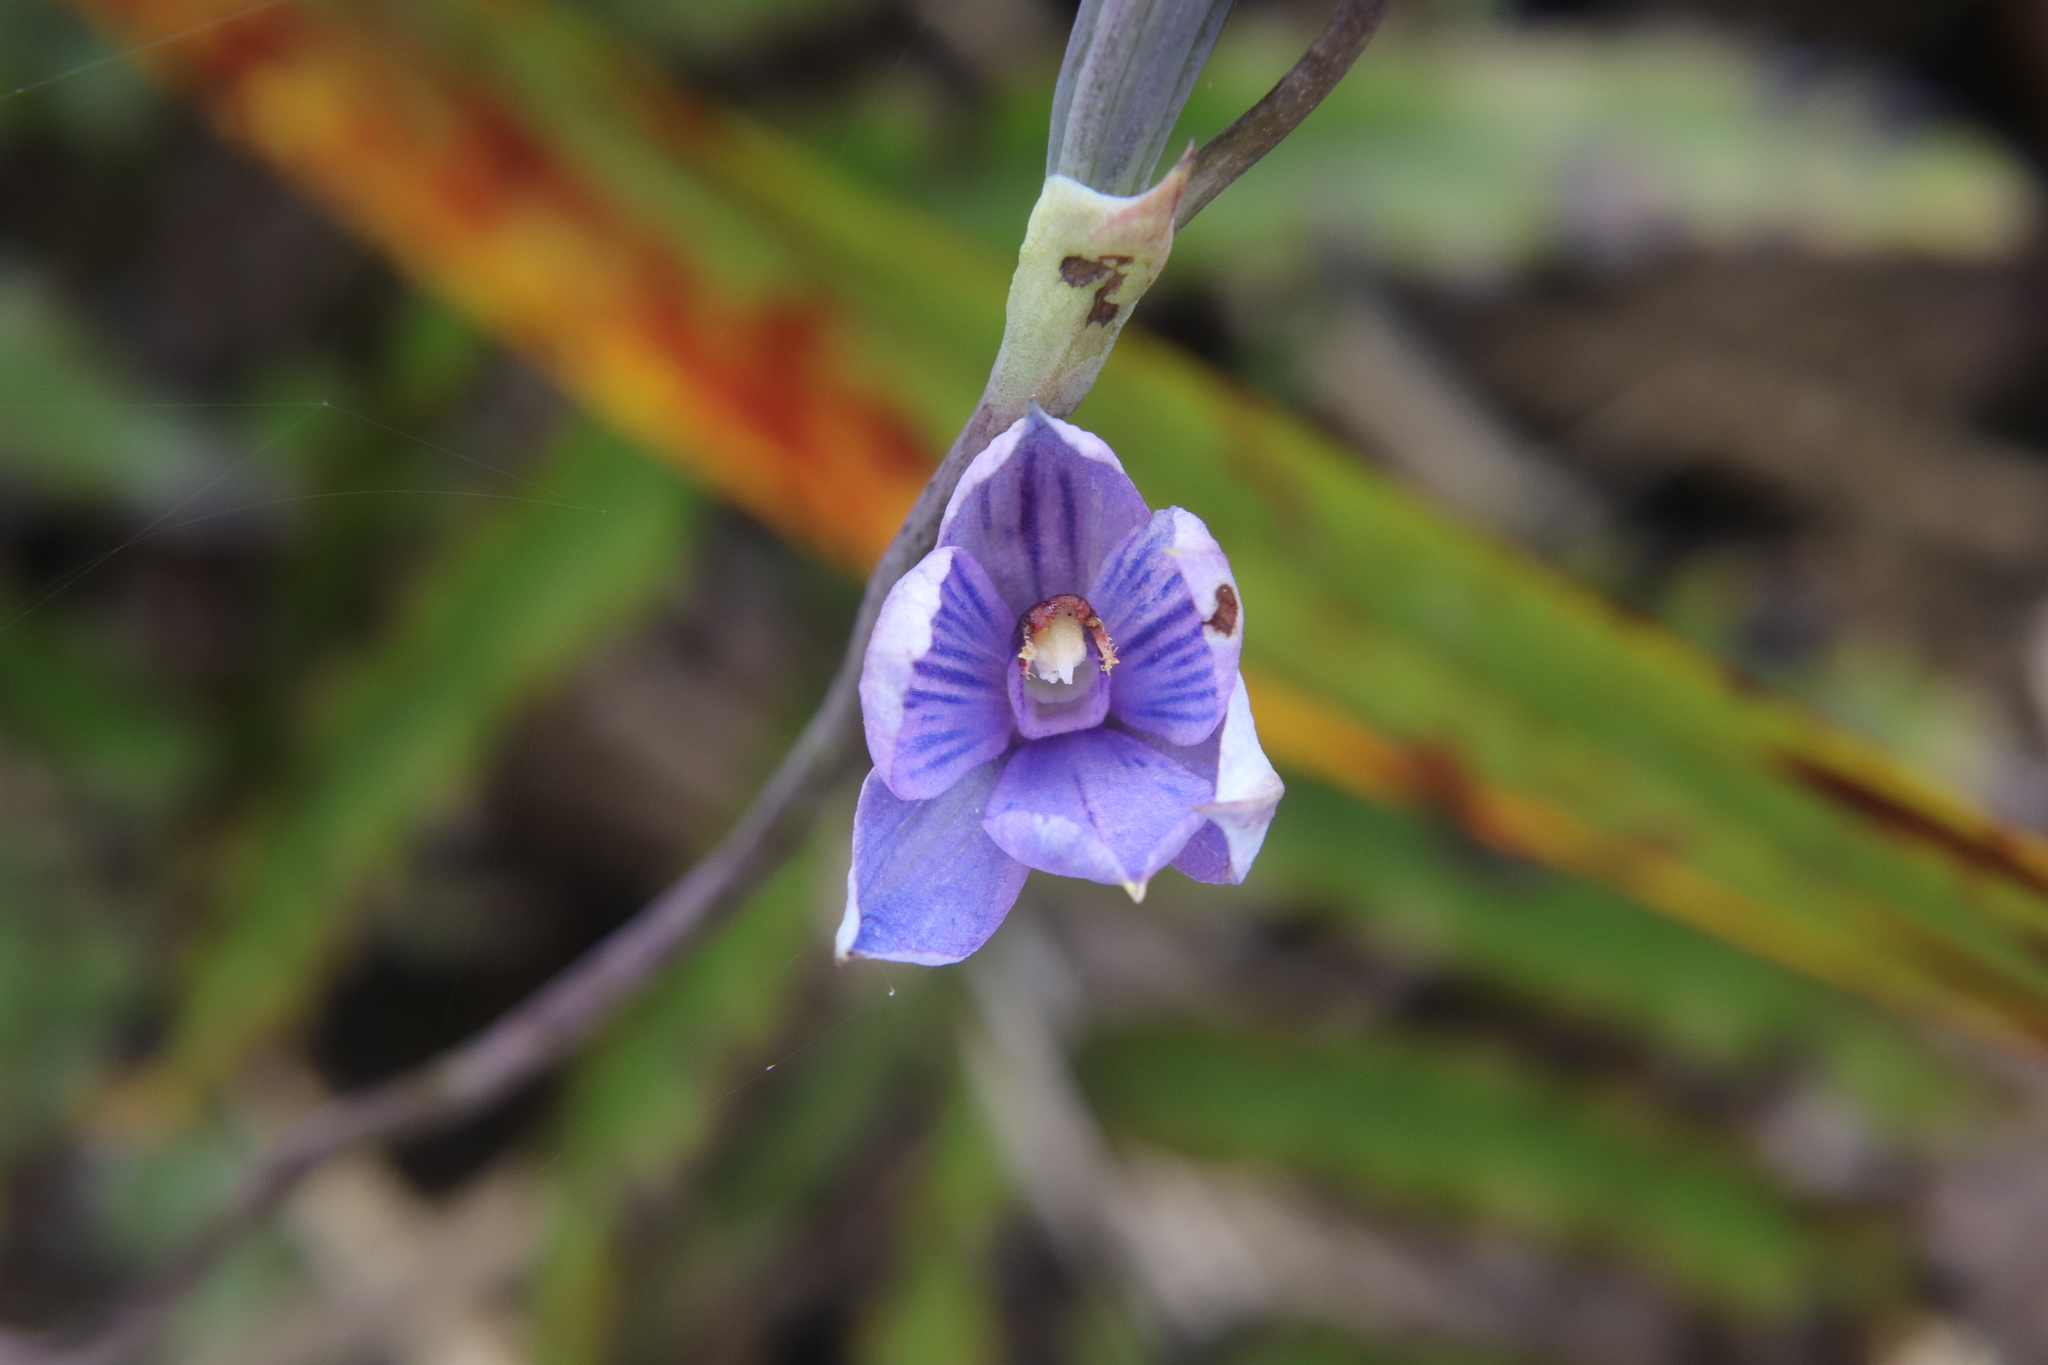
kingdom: Plantae
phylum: Tracheophyta
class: Liliopsida
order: Asparagales
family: Orchidaceae
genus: Thelymitra
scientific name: Thelymitra pulchella
